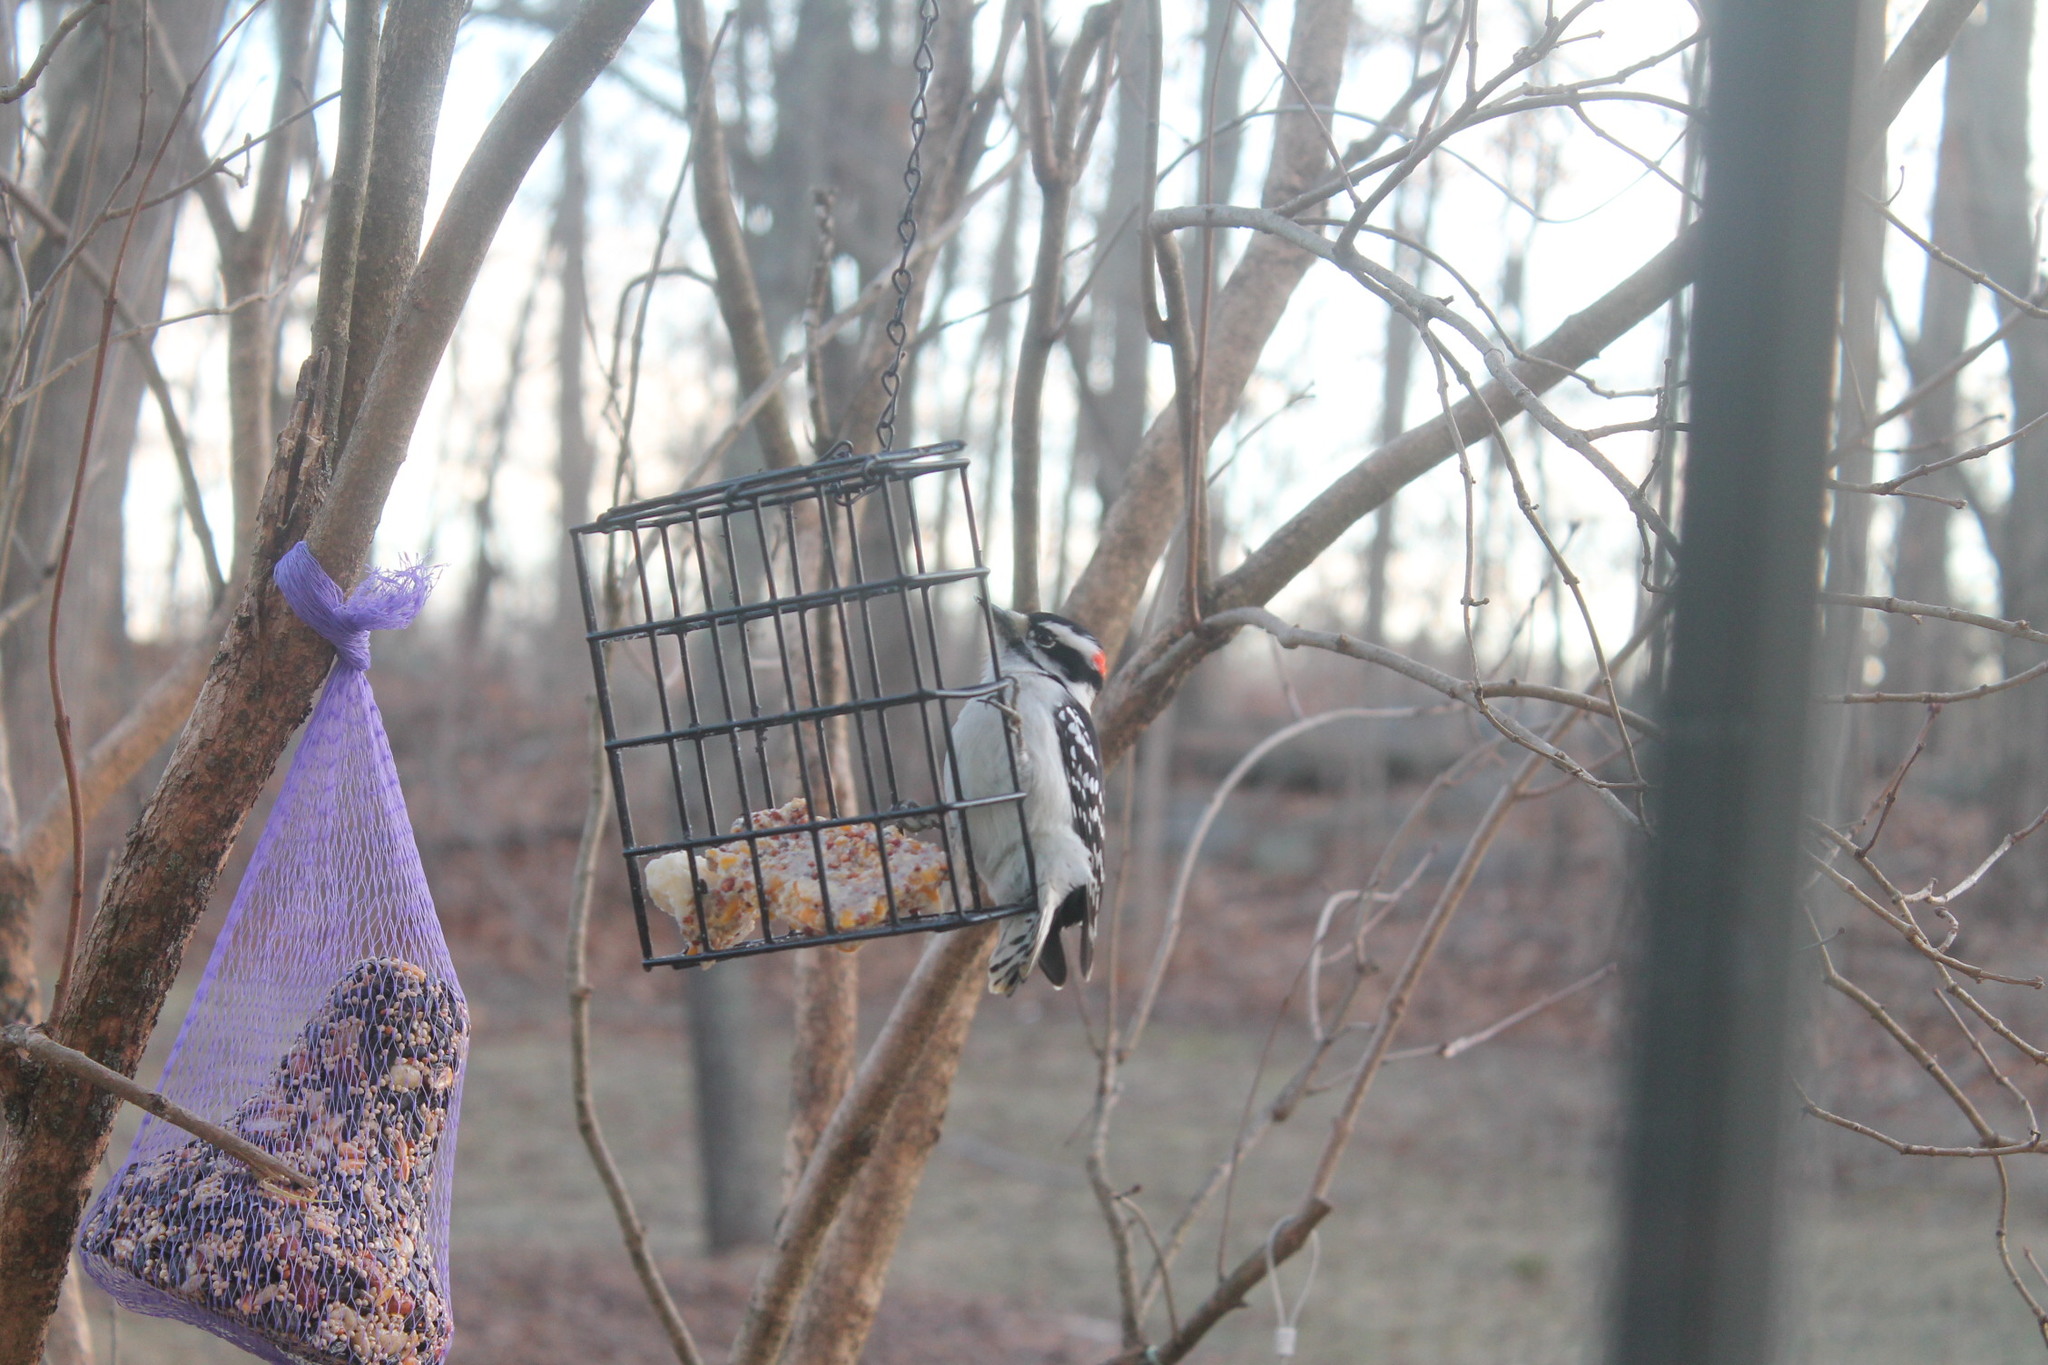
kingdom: Animalia
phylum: Chordata
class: Aves
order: Piciformes
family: Picidae
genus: Dryobates
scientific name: Dryobates pubescens
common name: Downy woodpecker
